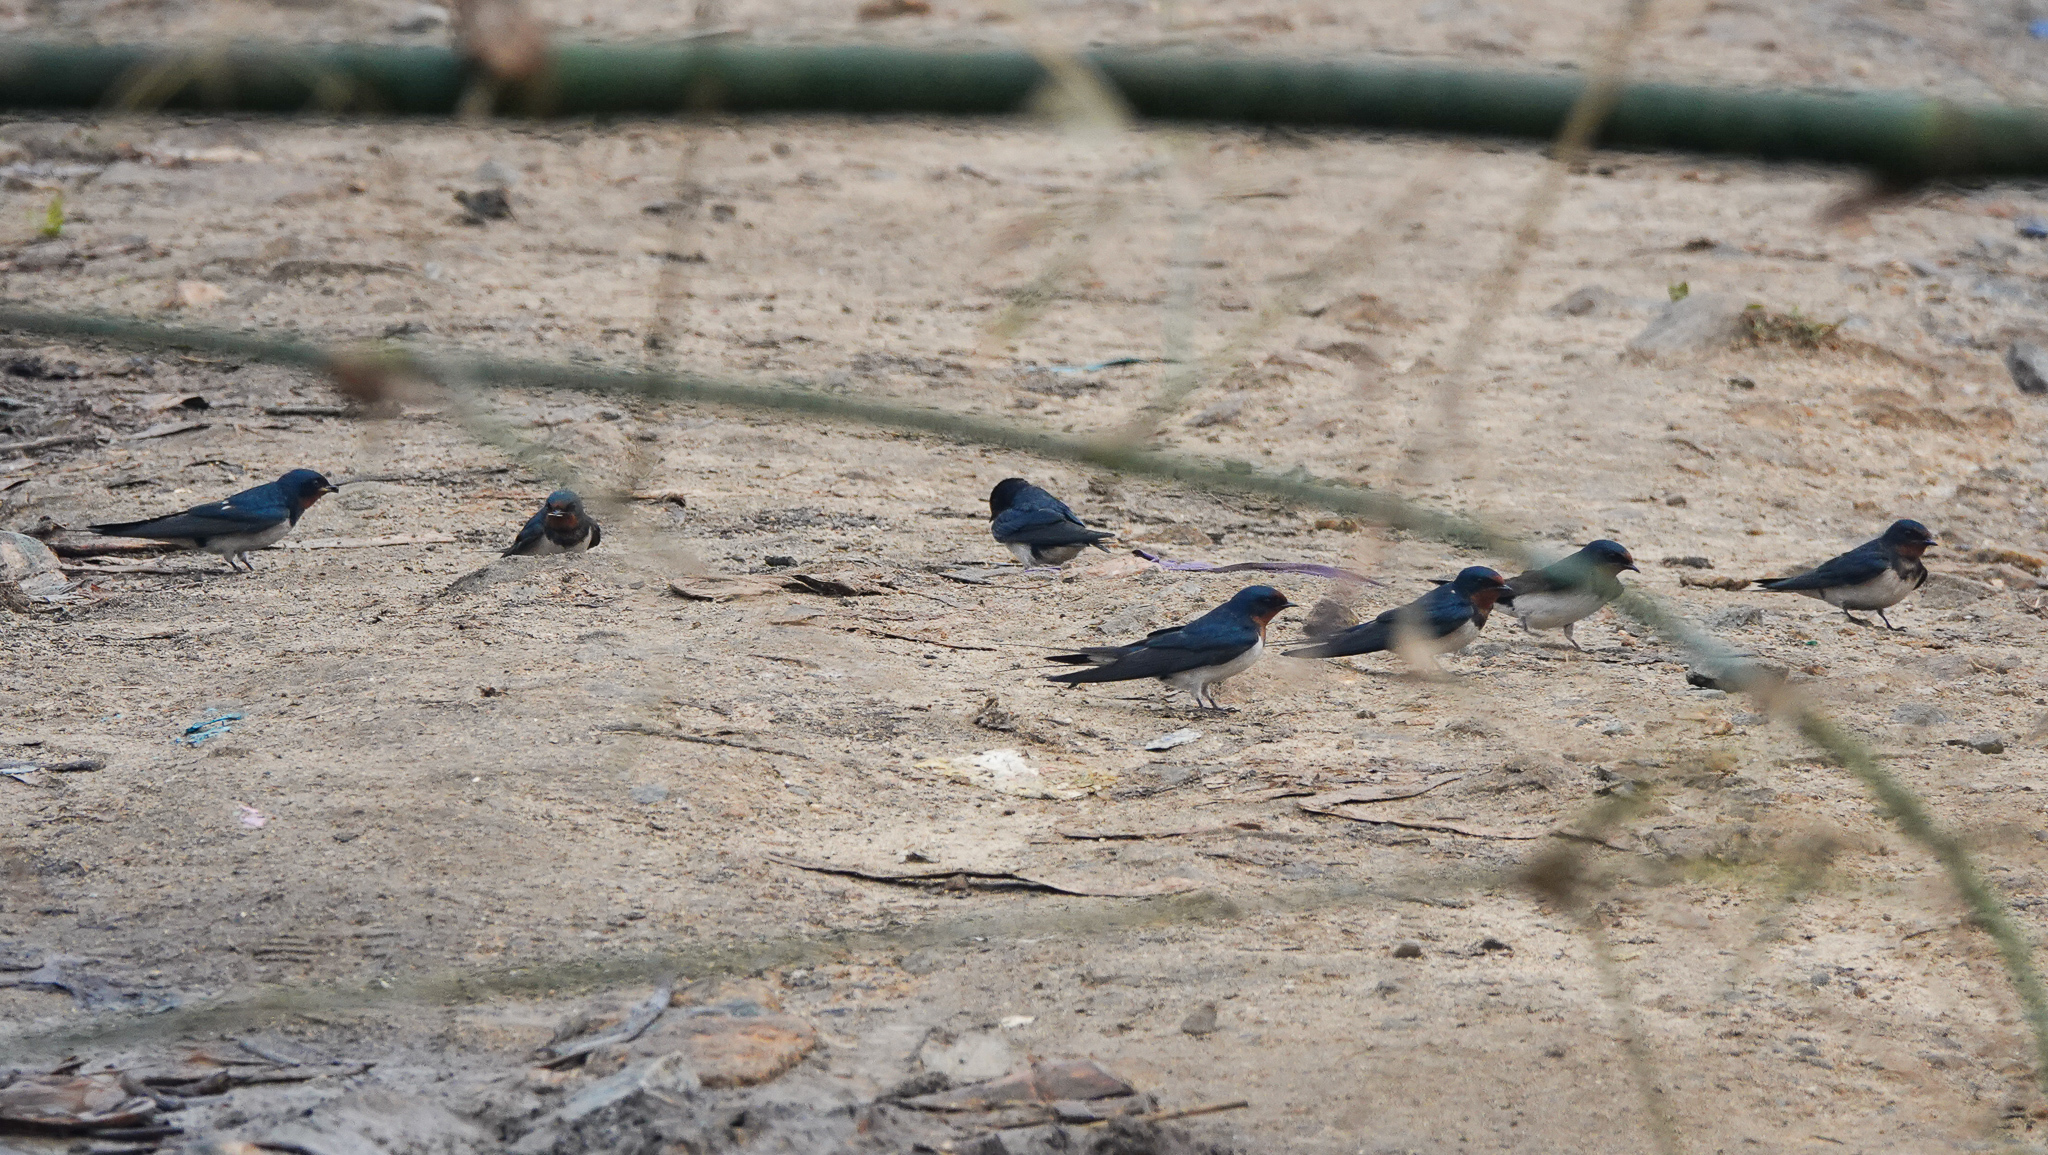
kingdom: Animalia
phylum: Chordata
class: Aves
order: Passeriformes
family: Hirundinidae
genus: Hirundo
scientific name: Hirundo rustica
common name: Barn swallow
